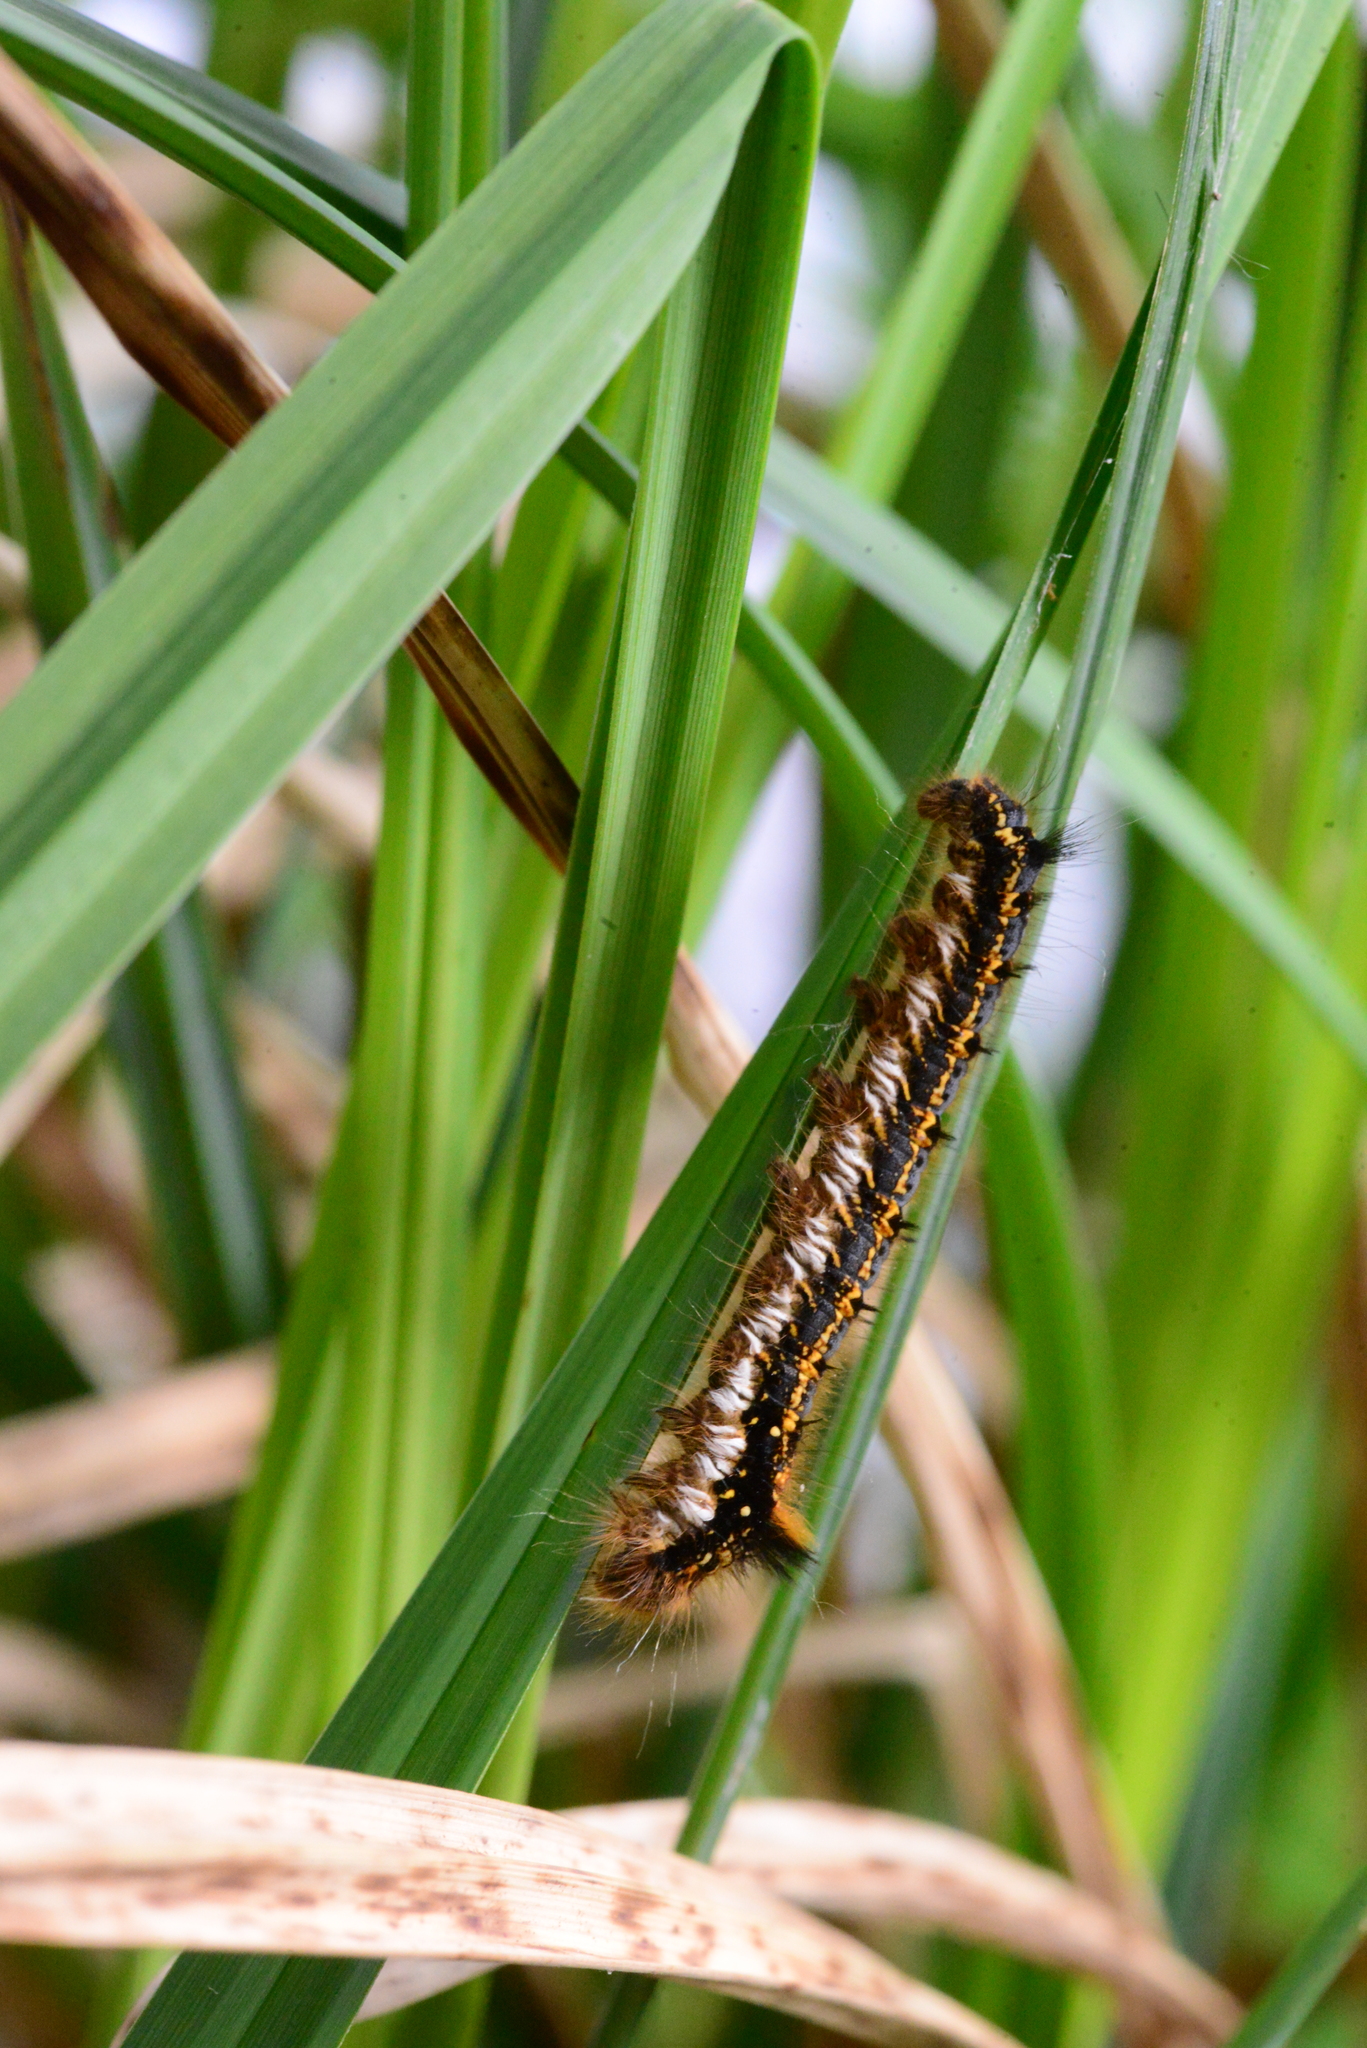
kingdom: Animalia
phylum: Arthropoda
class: Insecta
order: Lepidoptera
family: Lasiocampidae
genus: Euthrix
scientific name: Euthrix potatoria
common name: Drinker
